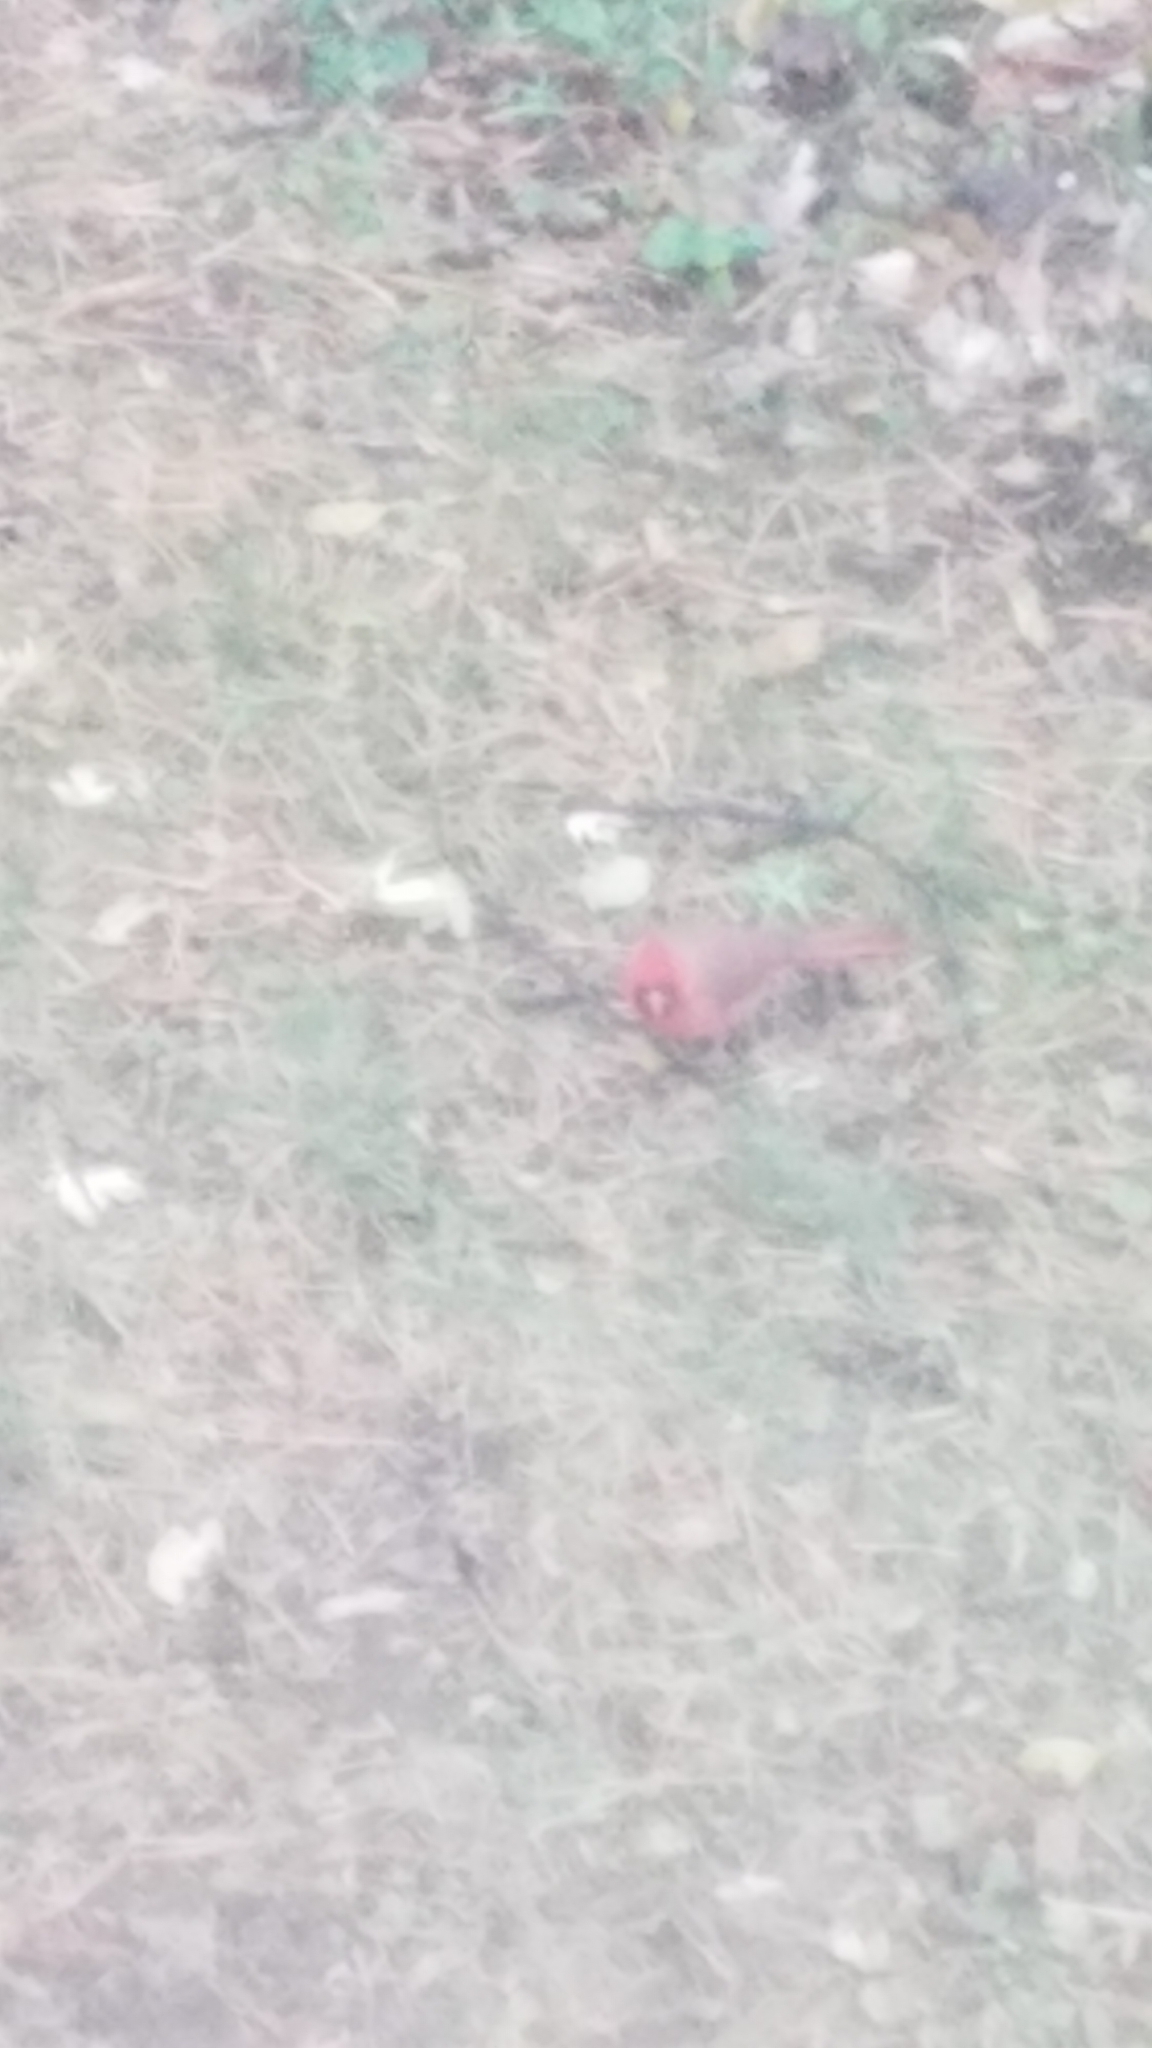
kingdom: Animalia
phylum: Chordata
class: Aves
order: Passeriformes
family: Cardinalidae
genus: Cardinalis
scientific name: Cardinalis cardinalis
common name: Northern cardinal
